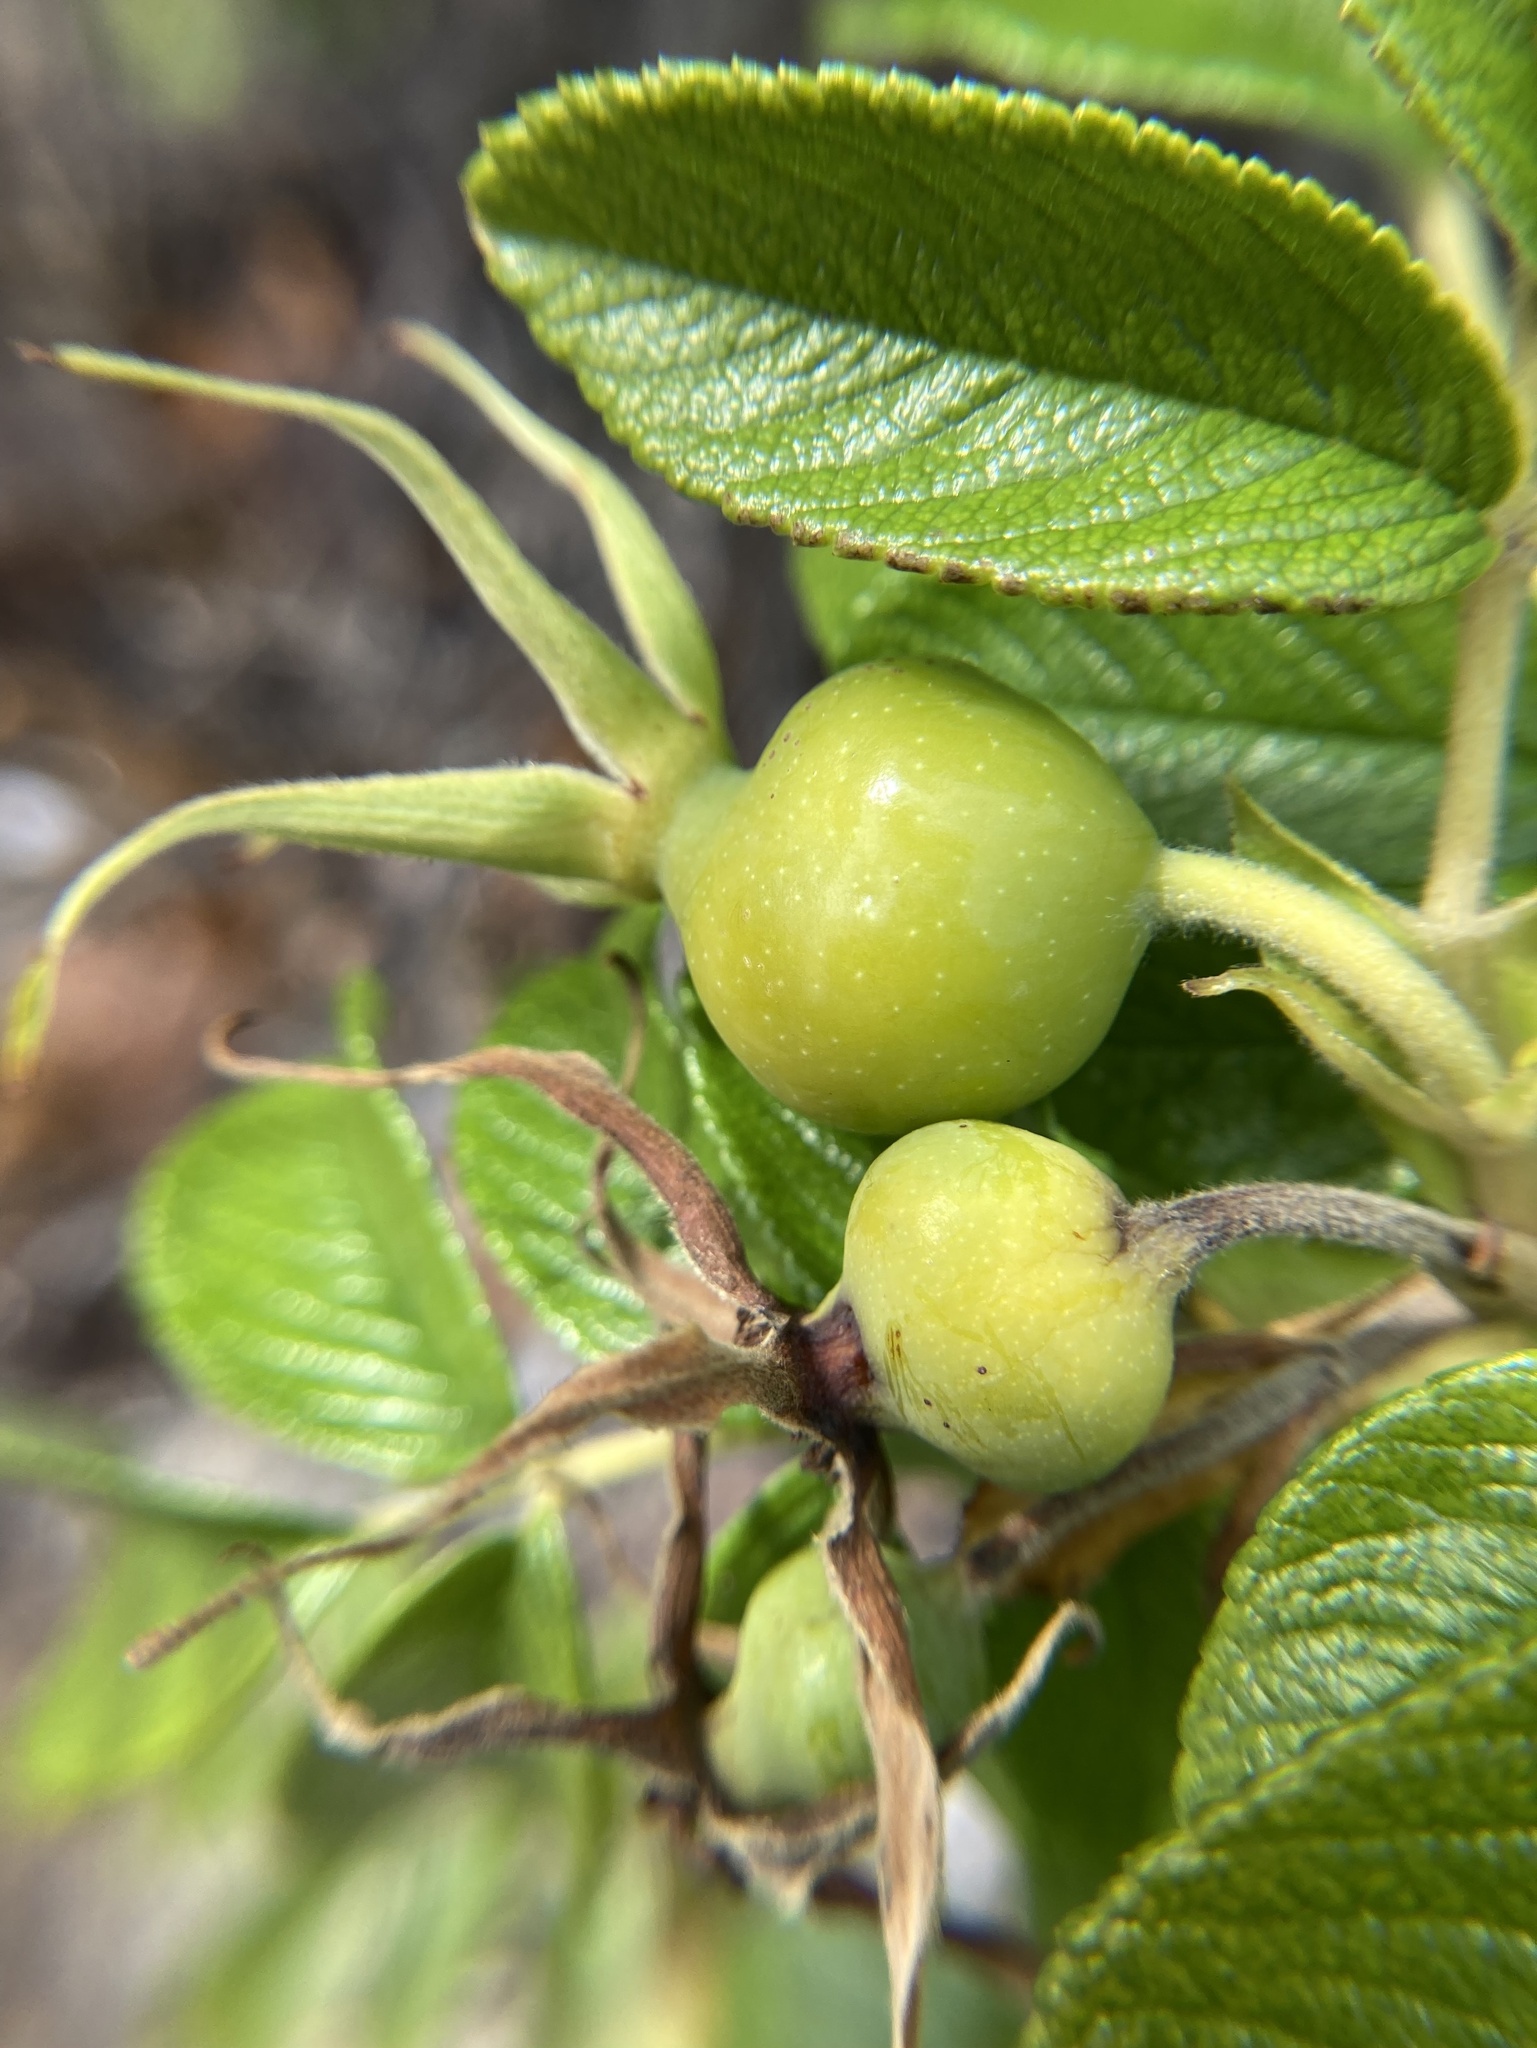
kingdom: Plantae
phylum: Tracheophyta
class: Magnoliopsida
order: Rosales
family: Rosaceae
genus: Rosa
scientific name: Rosa rugosa
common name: Japanese rose
